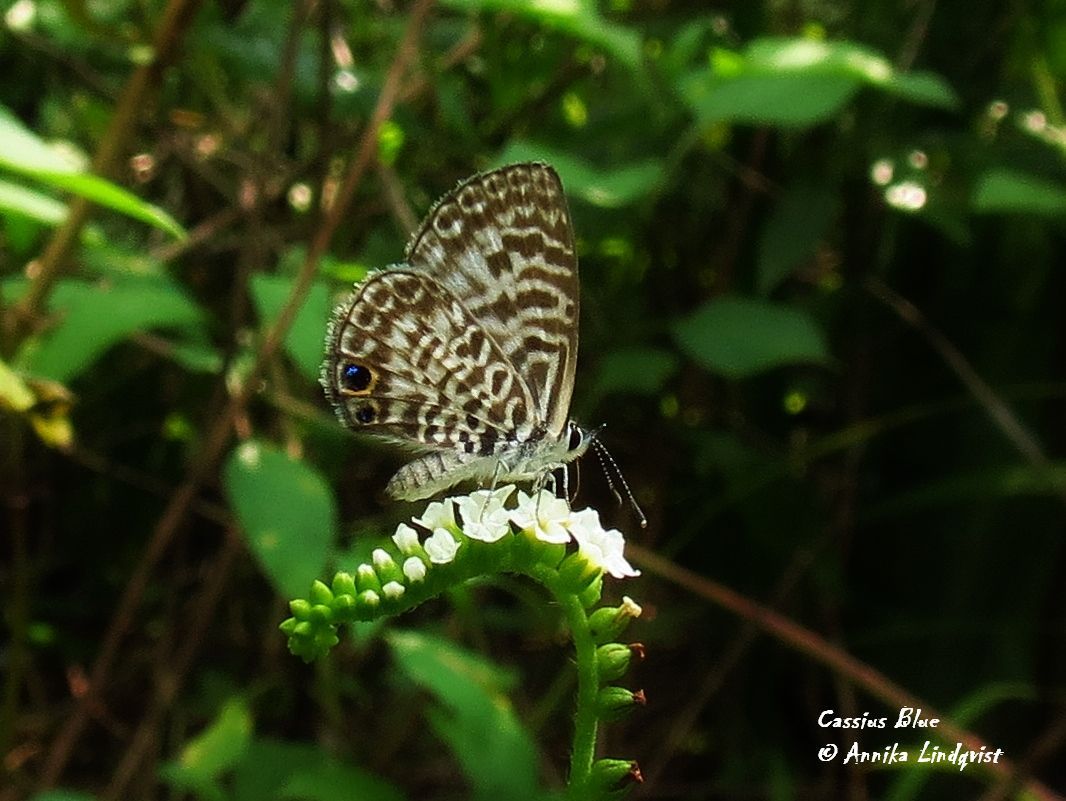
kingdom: Animalia
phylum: Arthropoda
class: Insecta
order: Lepidoptera
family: Lycaenidae
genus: Leptotes
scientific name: Leptotes cassius
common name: Cassius blue
